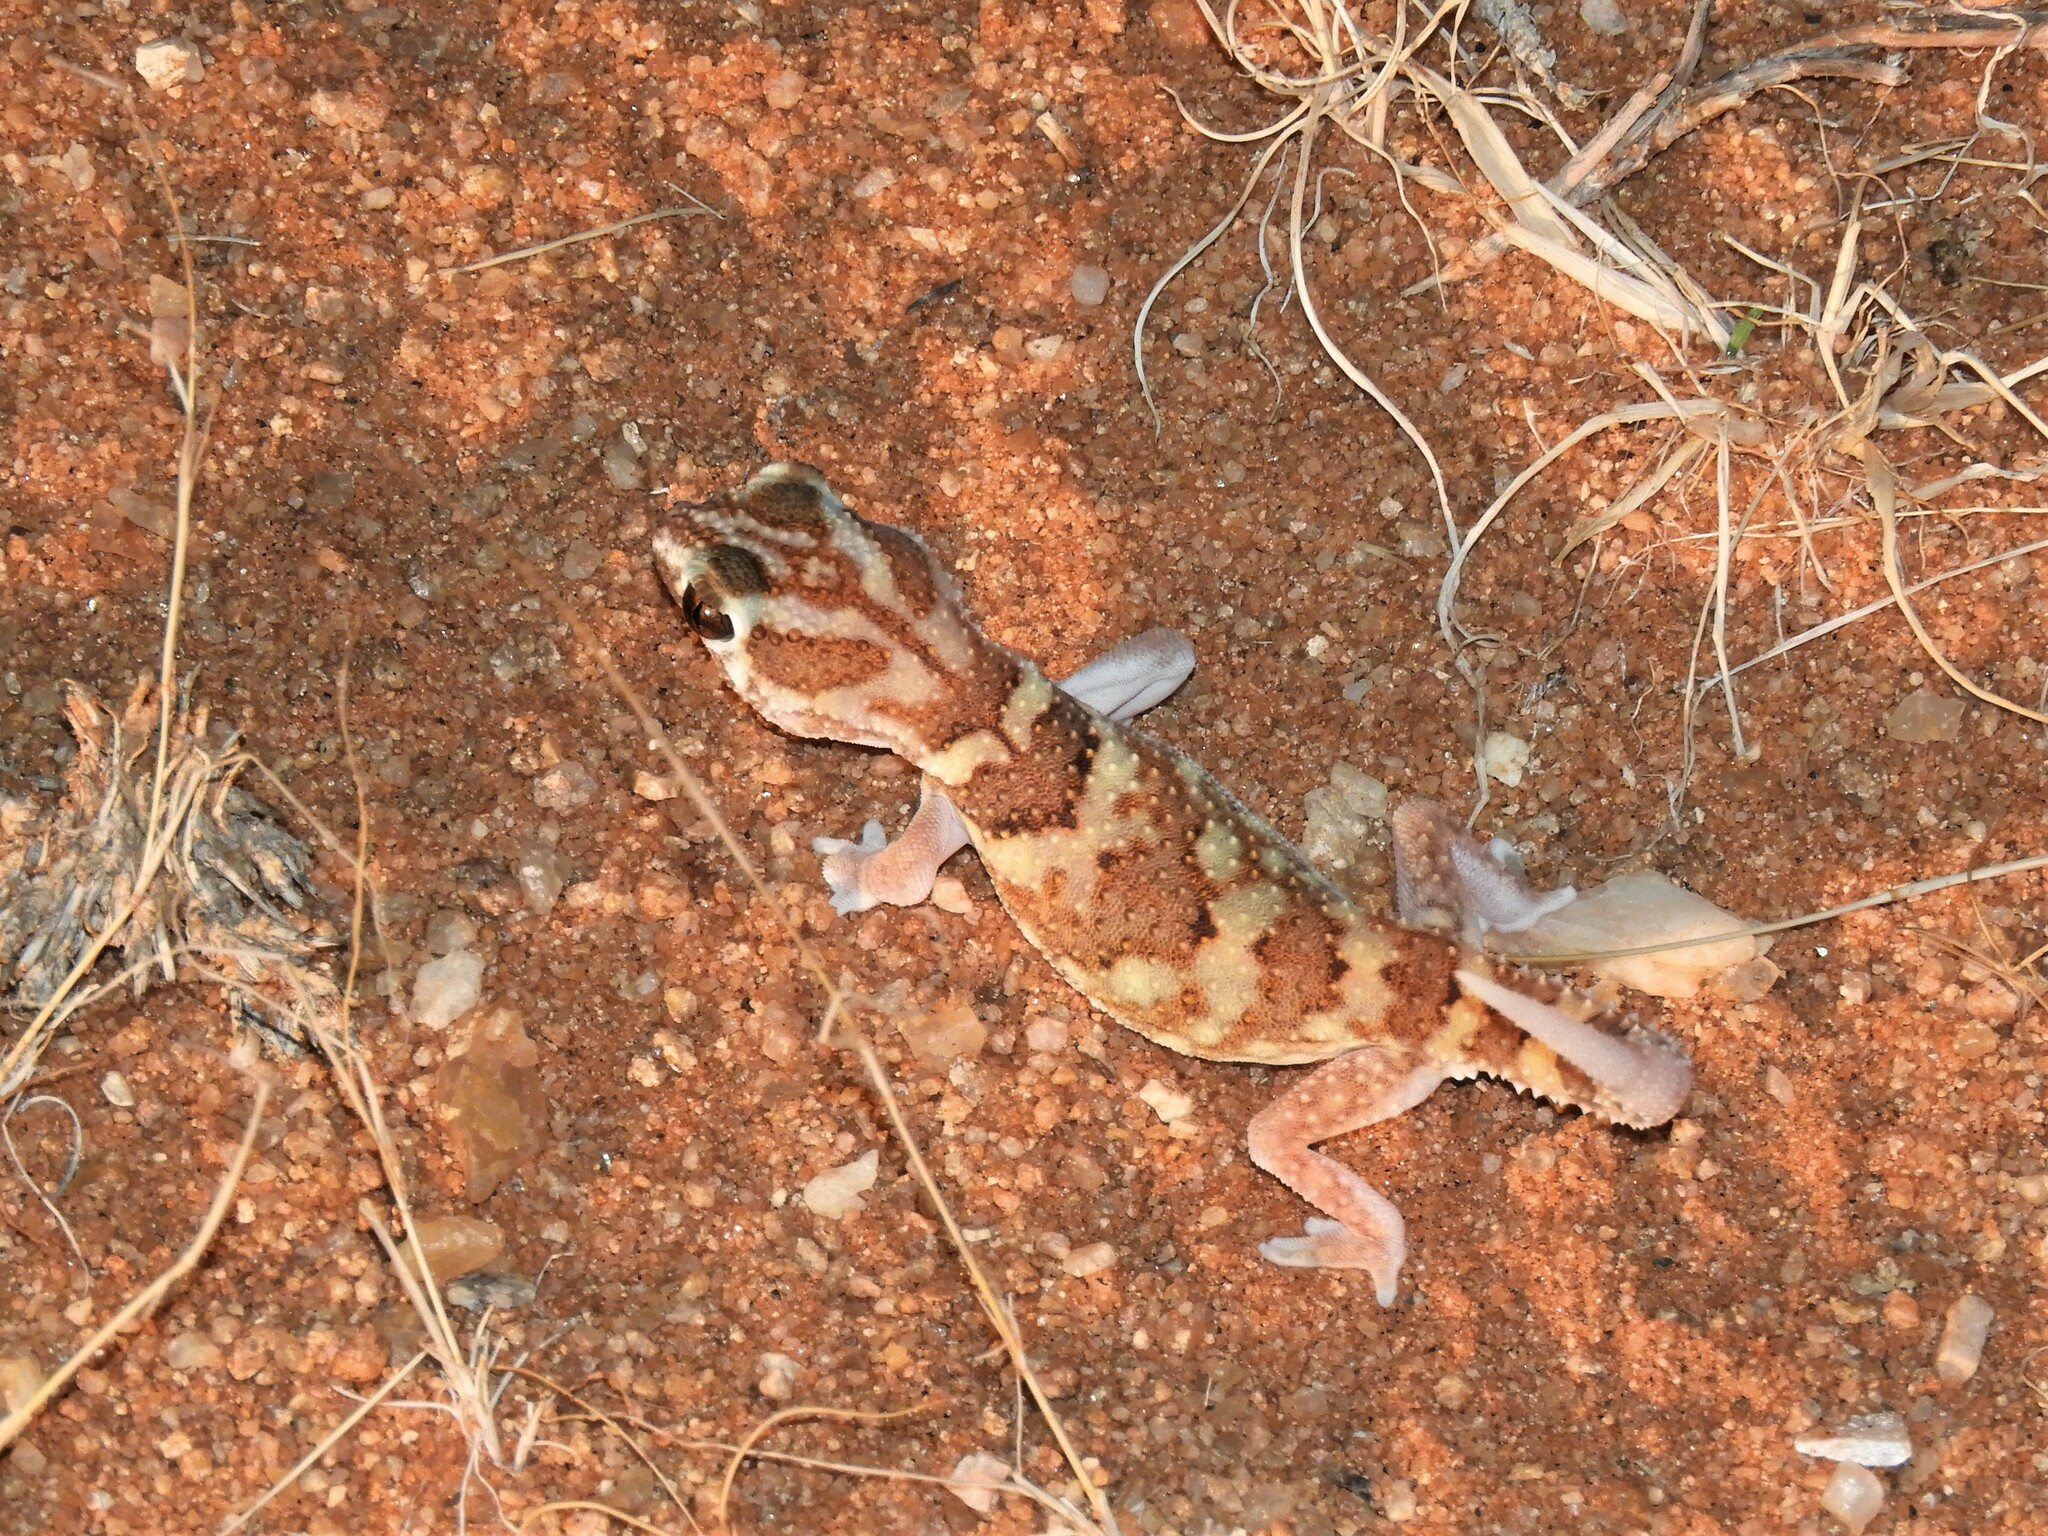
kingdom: Animalia
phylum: Chordata
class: Squamata
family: Gekkonidae
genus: Chondrodactylus
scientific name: Chondrodactylus angulifer
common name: Common giant ground gecko
